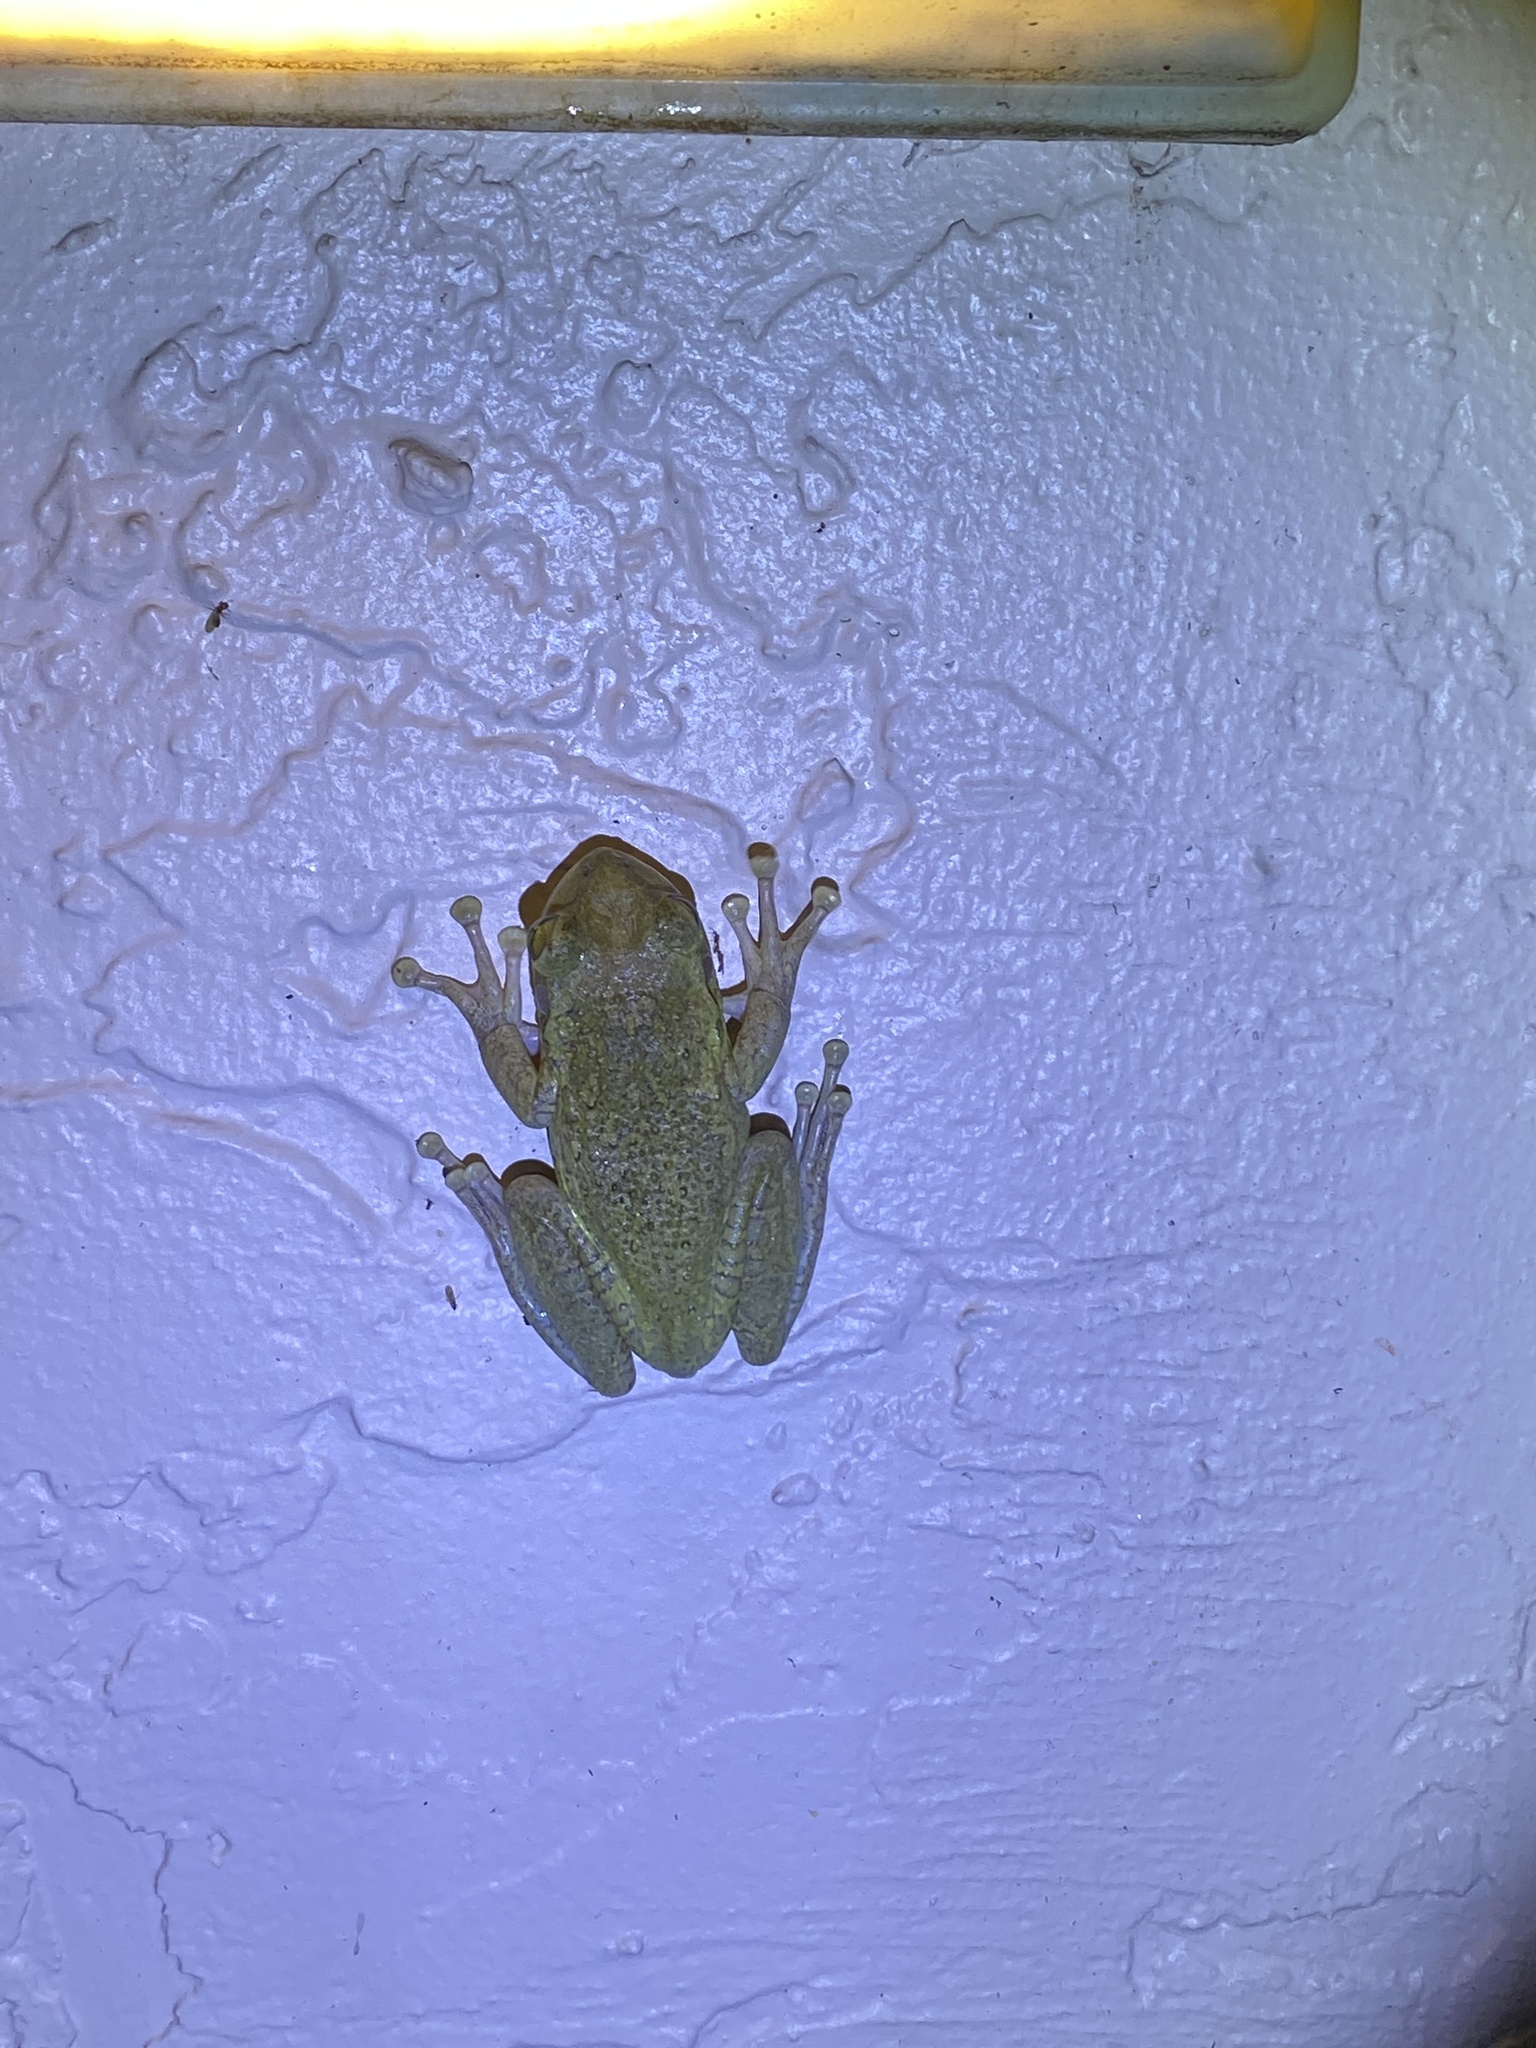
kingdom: Animalia
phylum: Chordata
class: Amphibia
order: Anura
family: Hylidae
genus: Osteopilus
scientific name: Osteopilus septentrionalis
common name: Cuban treefrog
